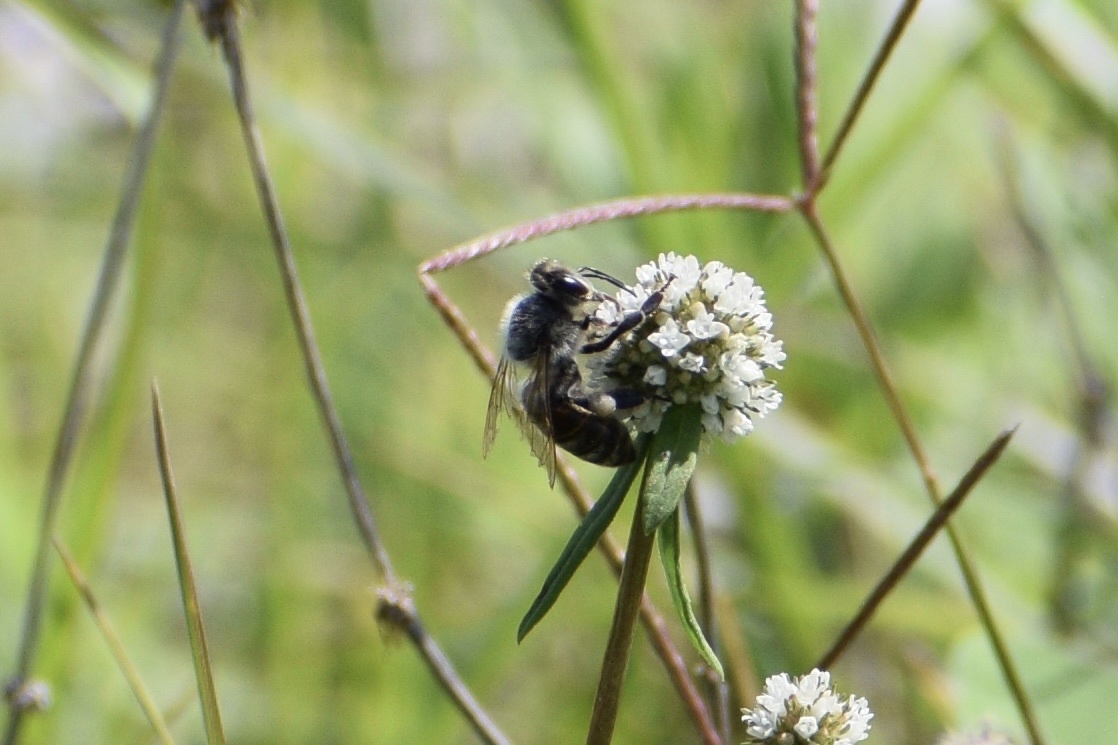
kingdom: Animalia
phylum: Arthropoda
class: Insecta
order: Hymenoptera
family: Apidae
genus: Apis
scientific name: Apis mellifera
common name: Honey bee
